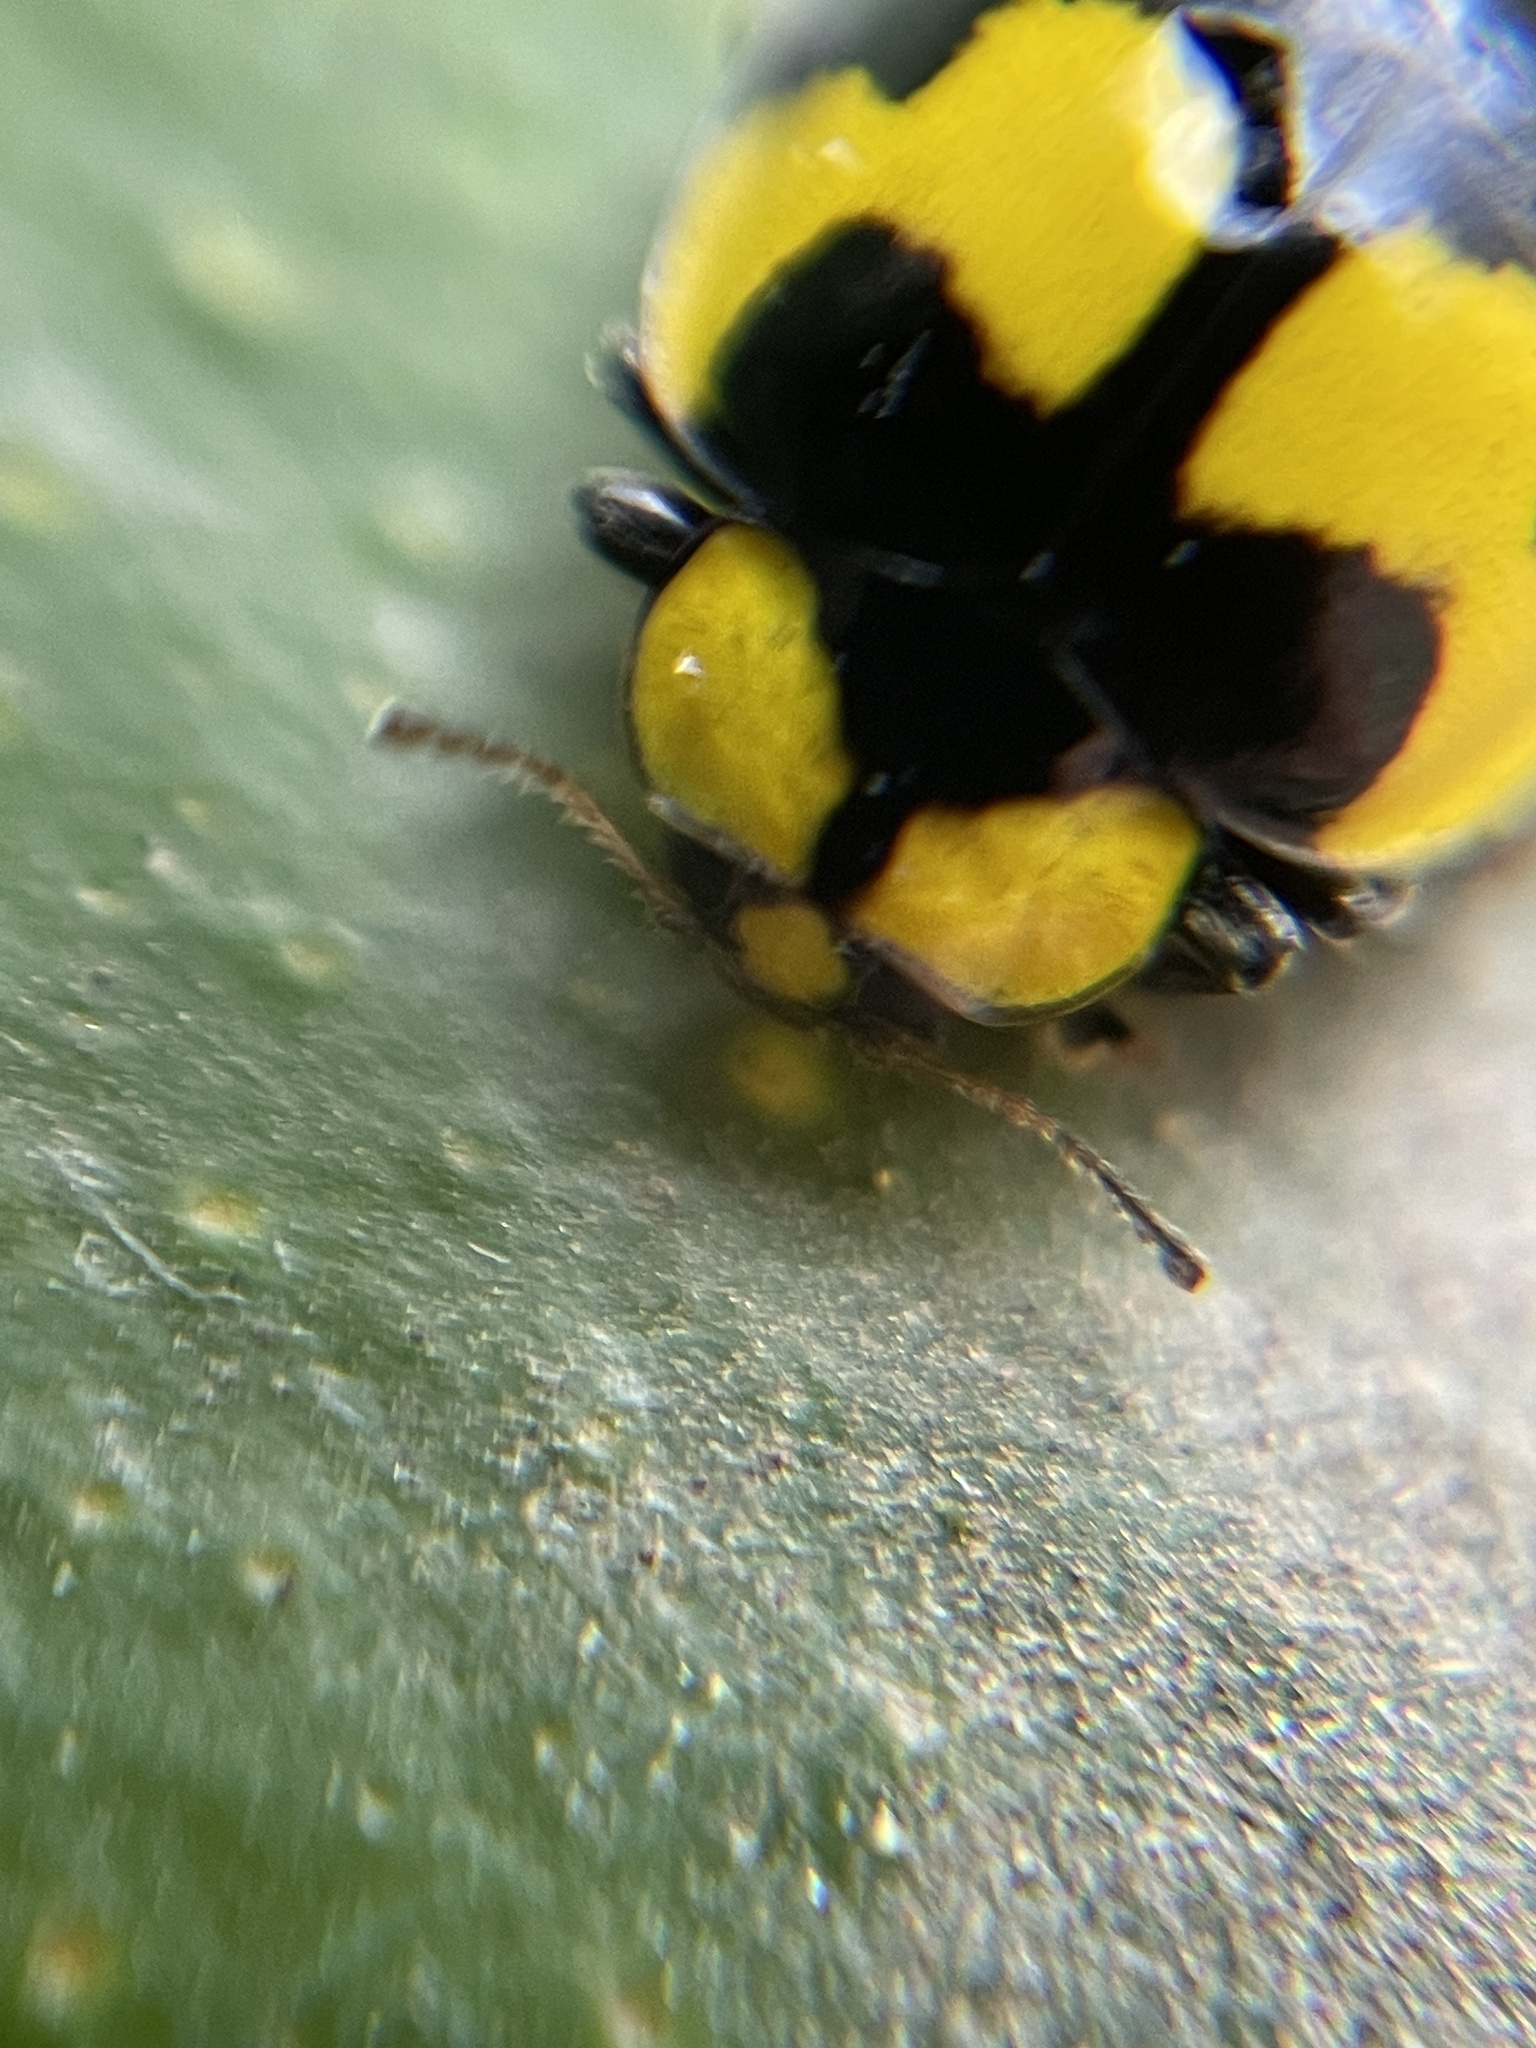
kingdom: Animalia
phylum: Arthropoda
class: Insecta
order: Coleoptera
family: Coccinellidae
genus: Illeis
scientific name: Illeis galbula
